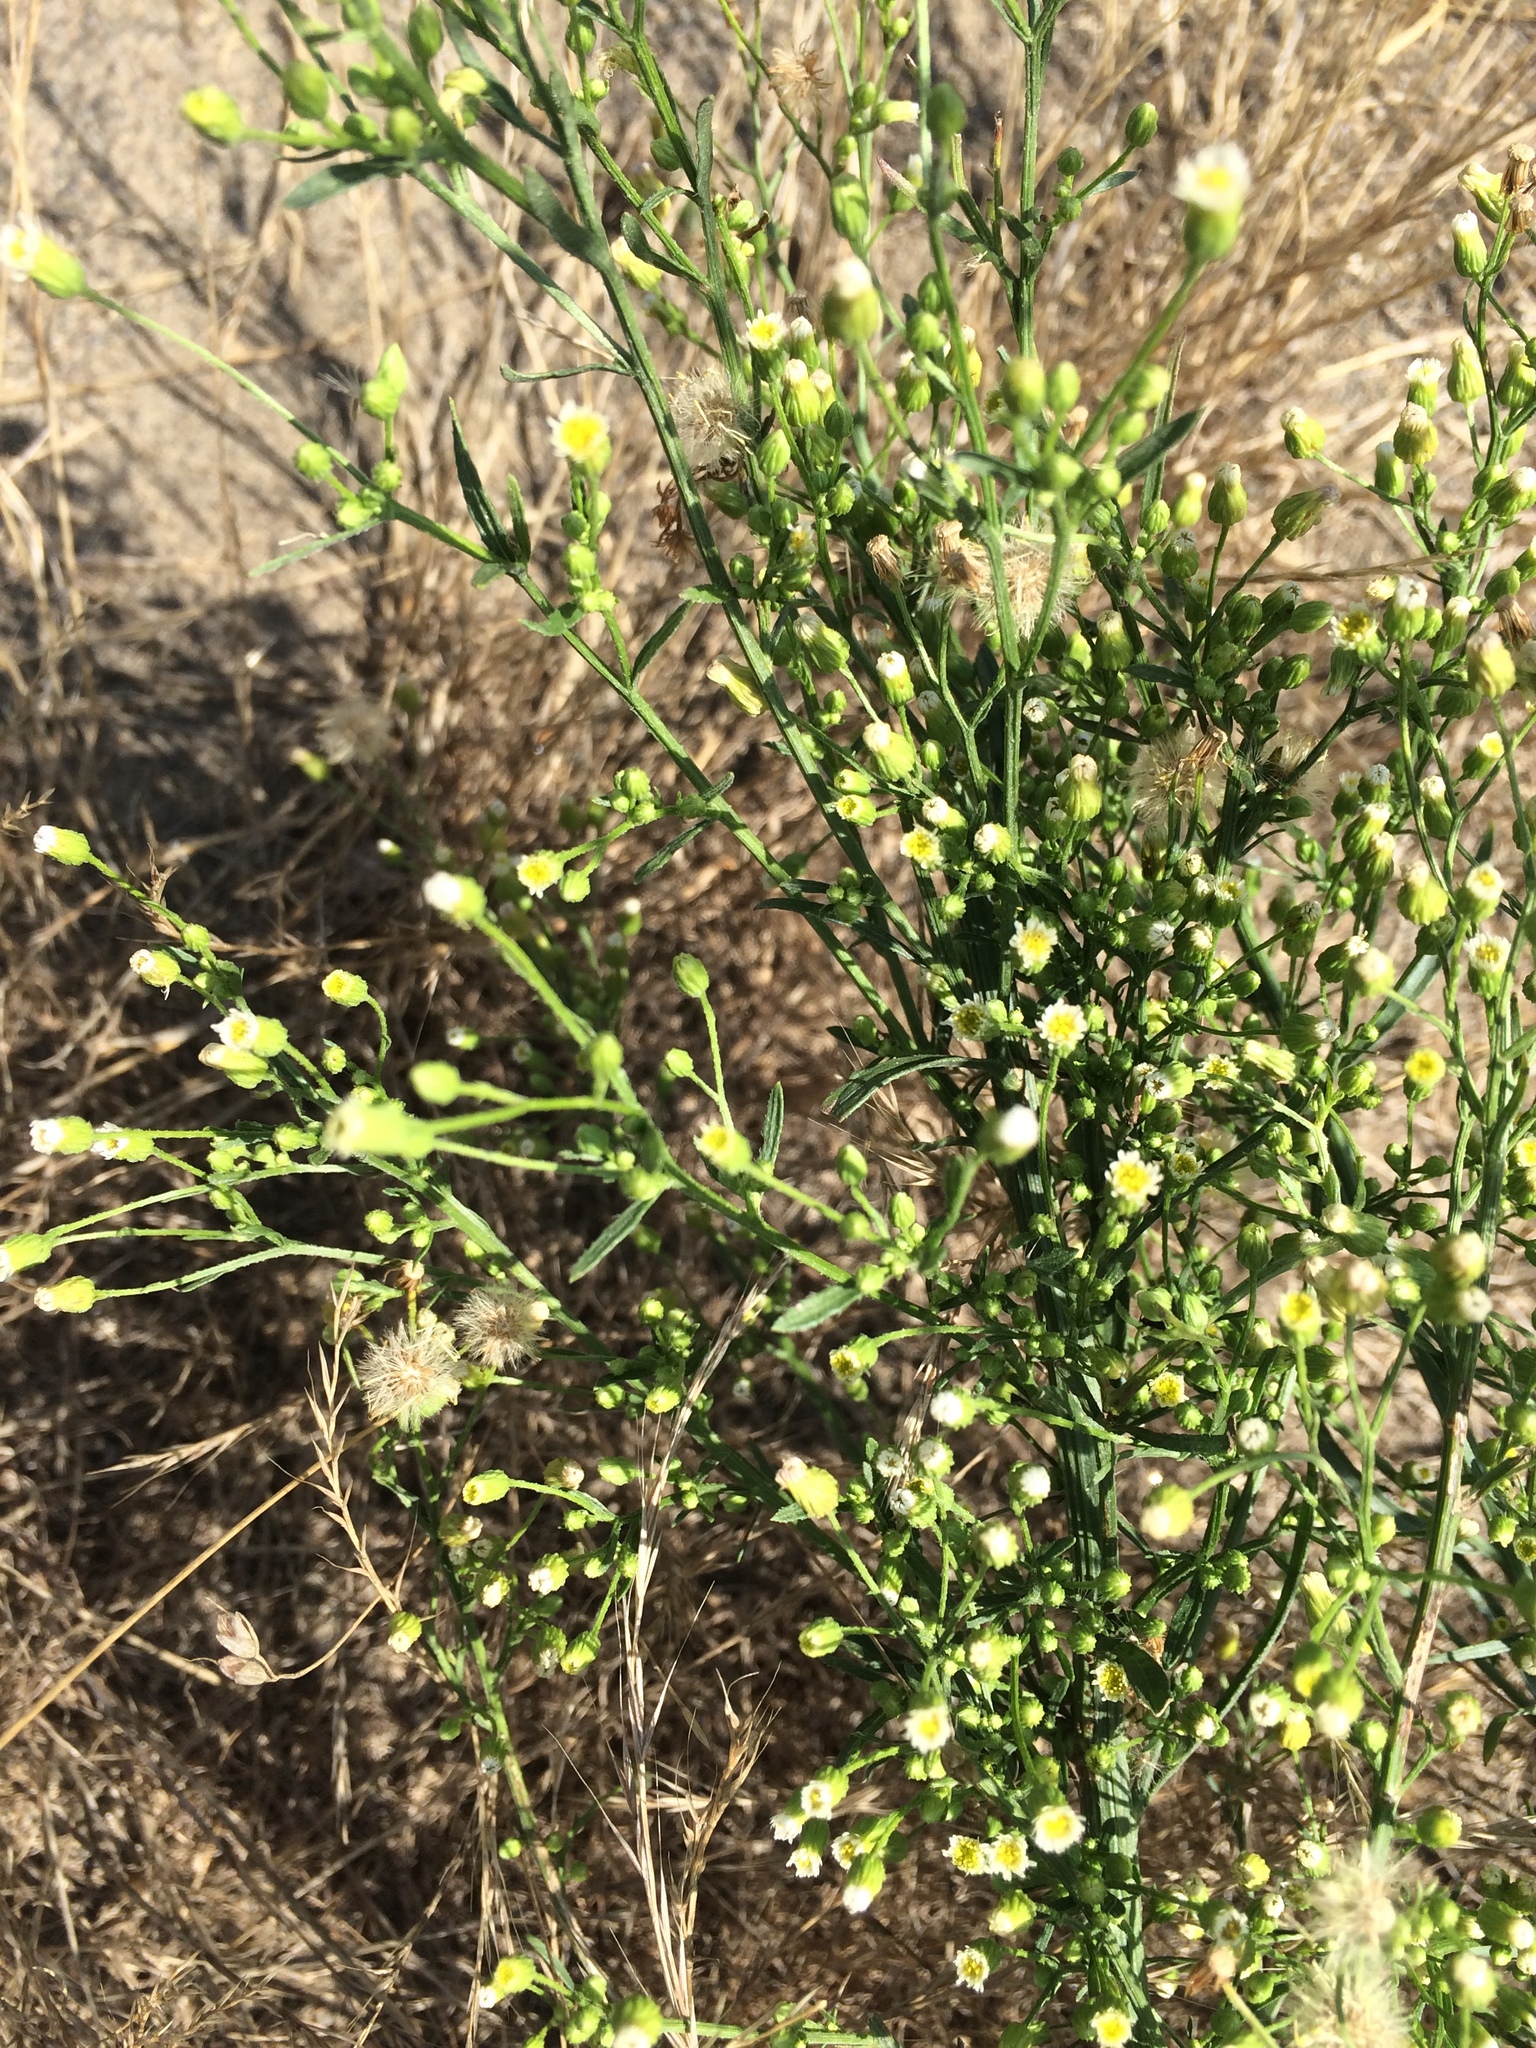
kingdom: Plantae
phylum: Tracheophyta
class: Magnoliopsida
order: Asterales
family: Asteraceae
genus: Erigeron
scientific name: Erigeron canadensis
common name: Canadian fleabane
